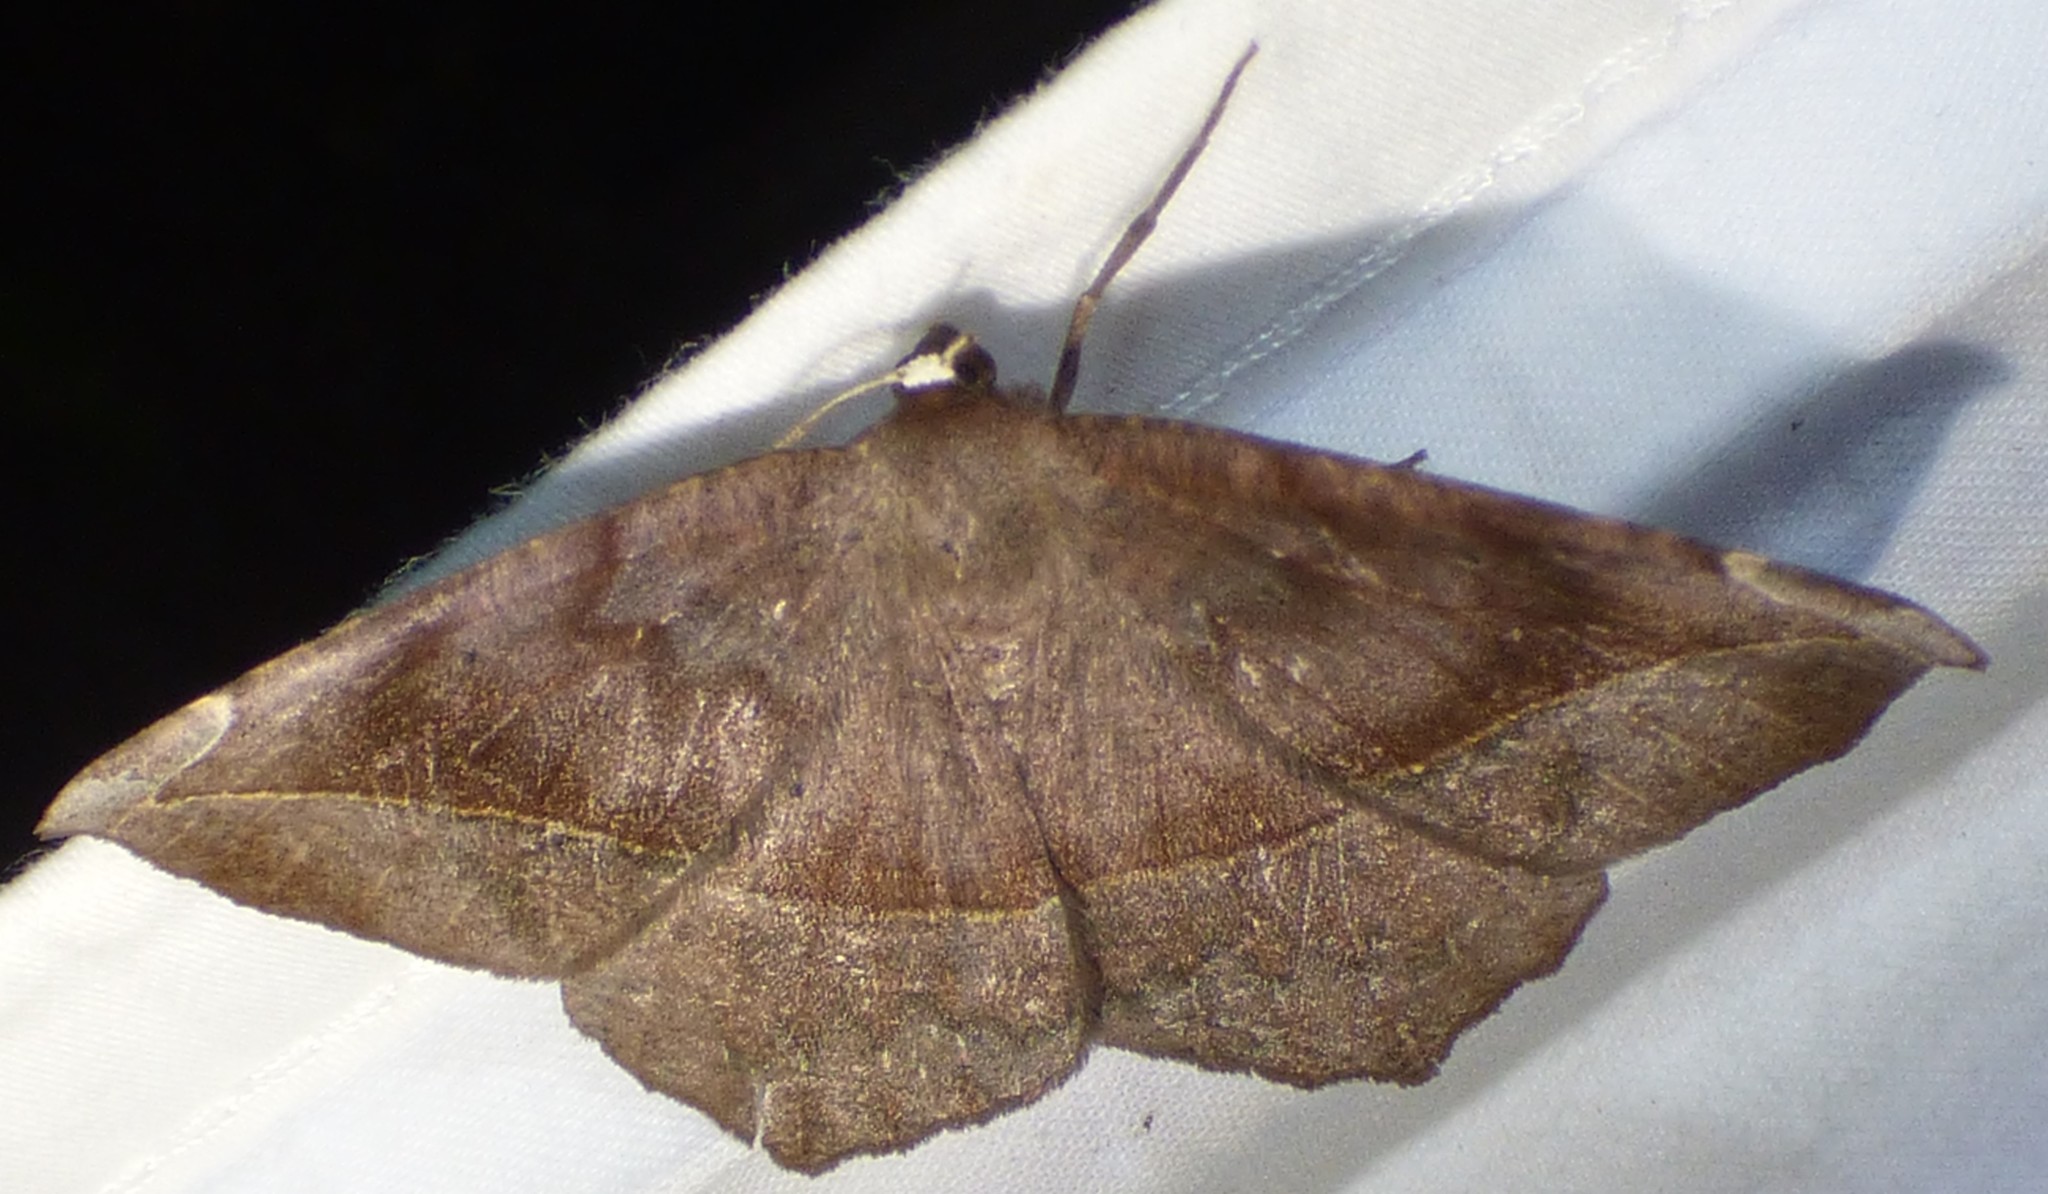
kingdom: Animalia
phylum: Arthropoda
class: Insecta
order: Lepidoptera
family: Geometridae
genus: Eutrapela
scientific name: Eutrapela clemataria
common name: Curved-toothed geometer
